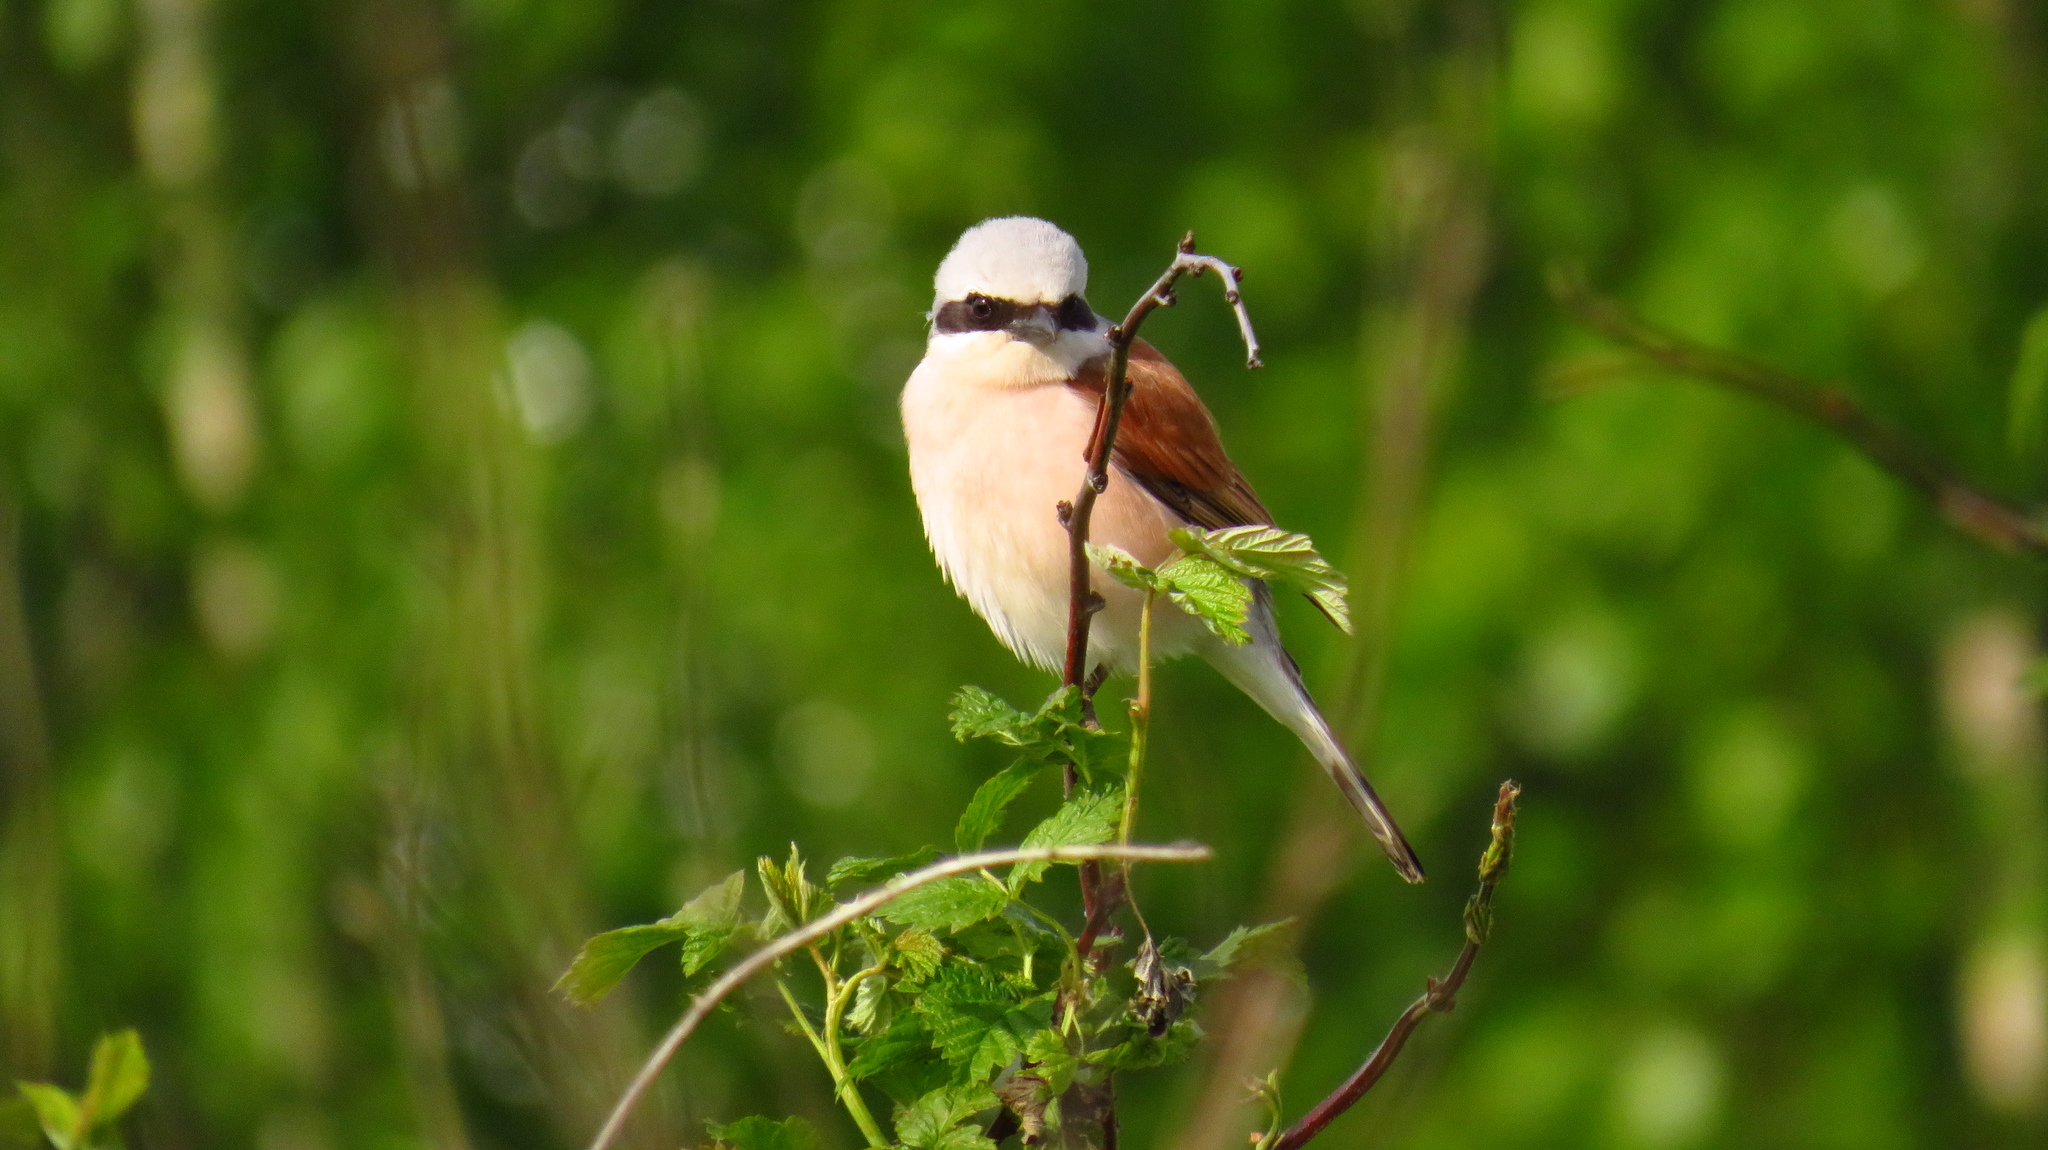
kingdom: Animalia
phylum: Chordata
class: Aves
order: Passeriformes
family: Laniidae
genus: Lanius
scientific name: Lanius collurio
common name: Red-backed shrike
